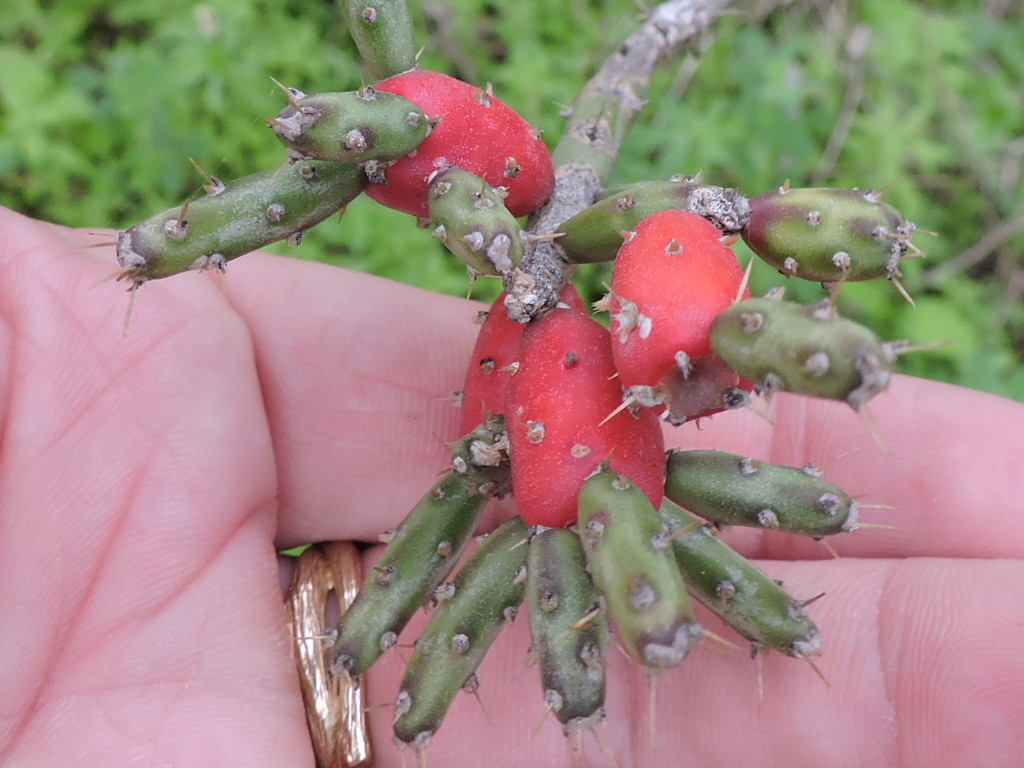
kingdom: Plantae
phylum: Tracheophyta
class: Magnoliopsida
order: Caryophyllales
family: Cactaceae
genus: Cylindropuntia
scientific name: Cylindropuntia leptocaulis
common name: Christmas cactus
